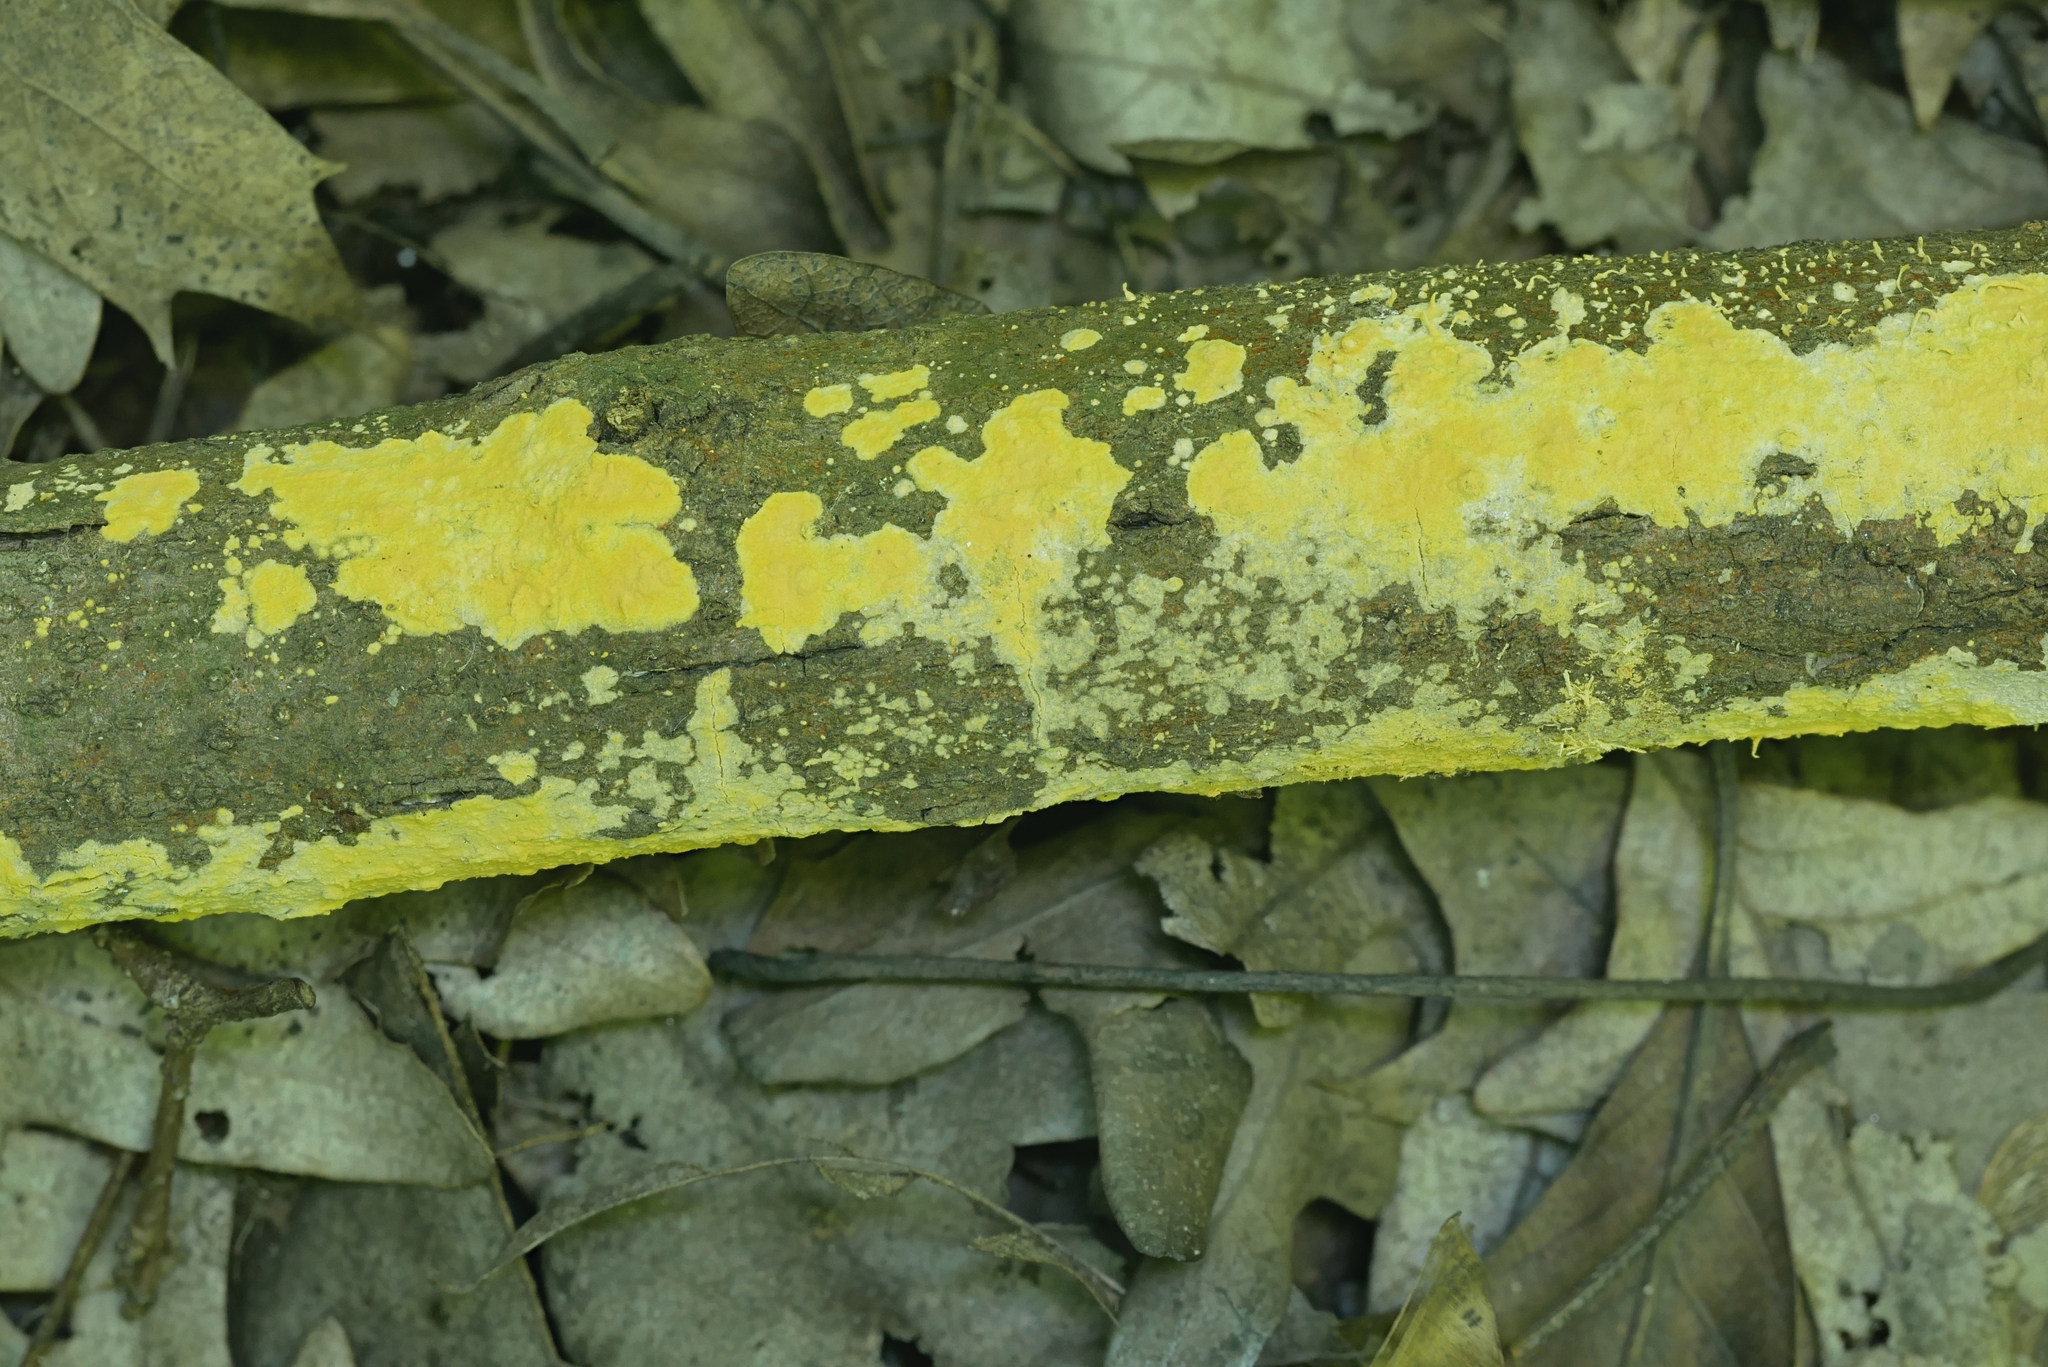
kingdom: Fungi
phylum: Basidiomycota
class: Agaricomycetes
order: Russulales
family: Peniophoraceae
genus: Vararia
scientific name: Vararia investiens
